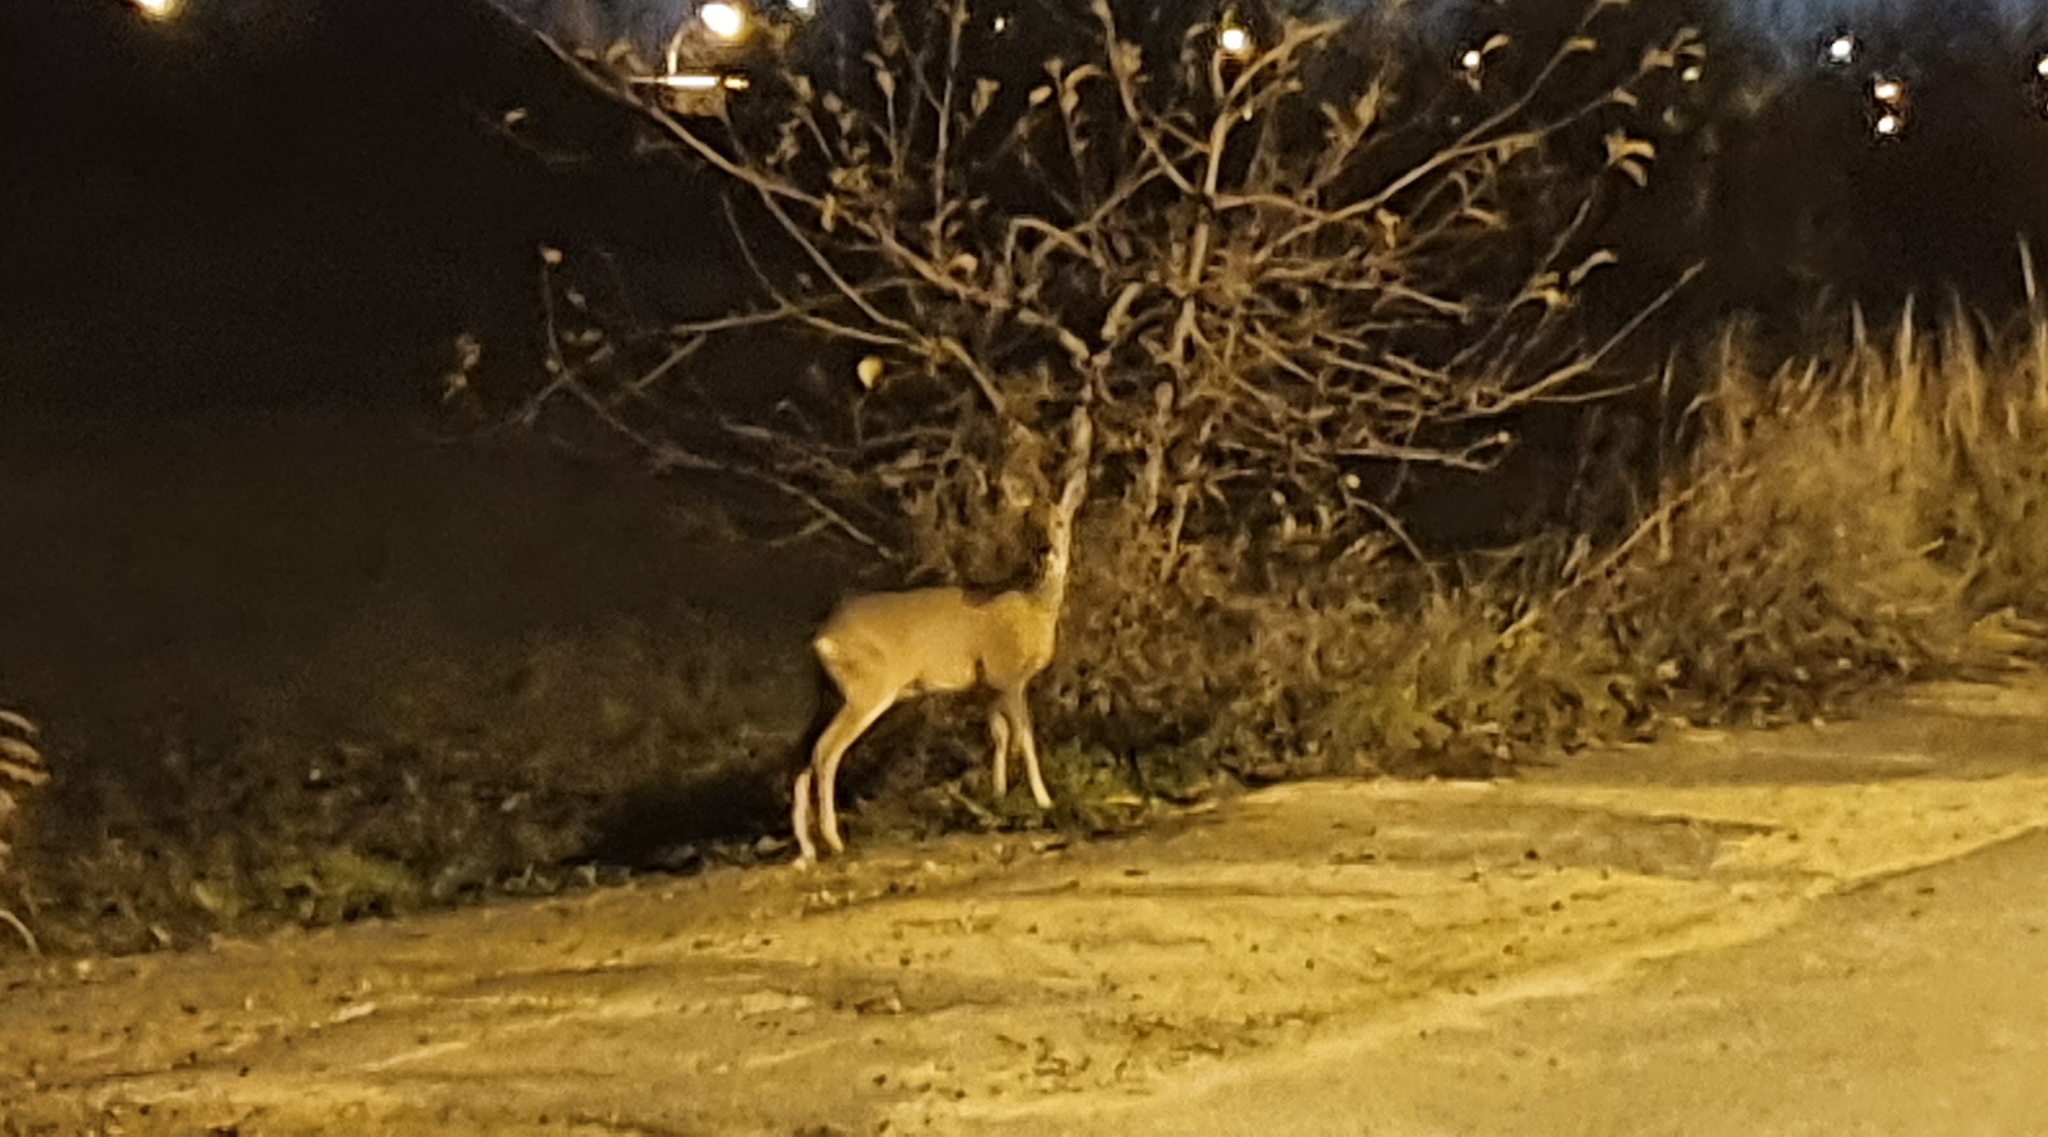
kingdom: Animalia
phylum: Chordata
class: Mammalia
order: Artiodactyla
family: Cervidae
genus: Capreolus
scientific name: Capreolus capreolus
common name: Western roe deer
